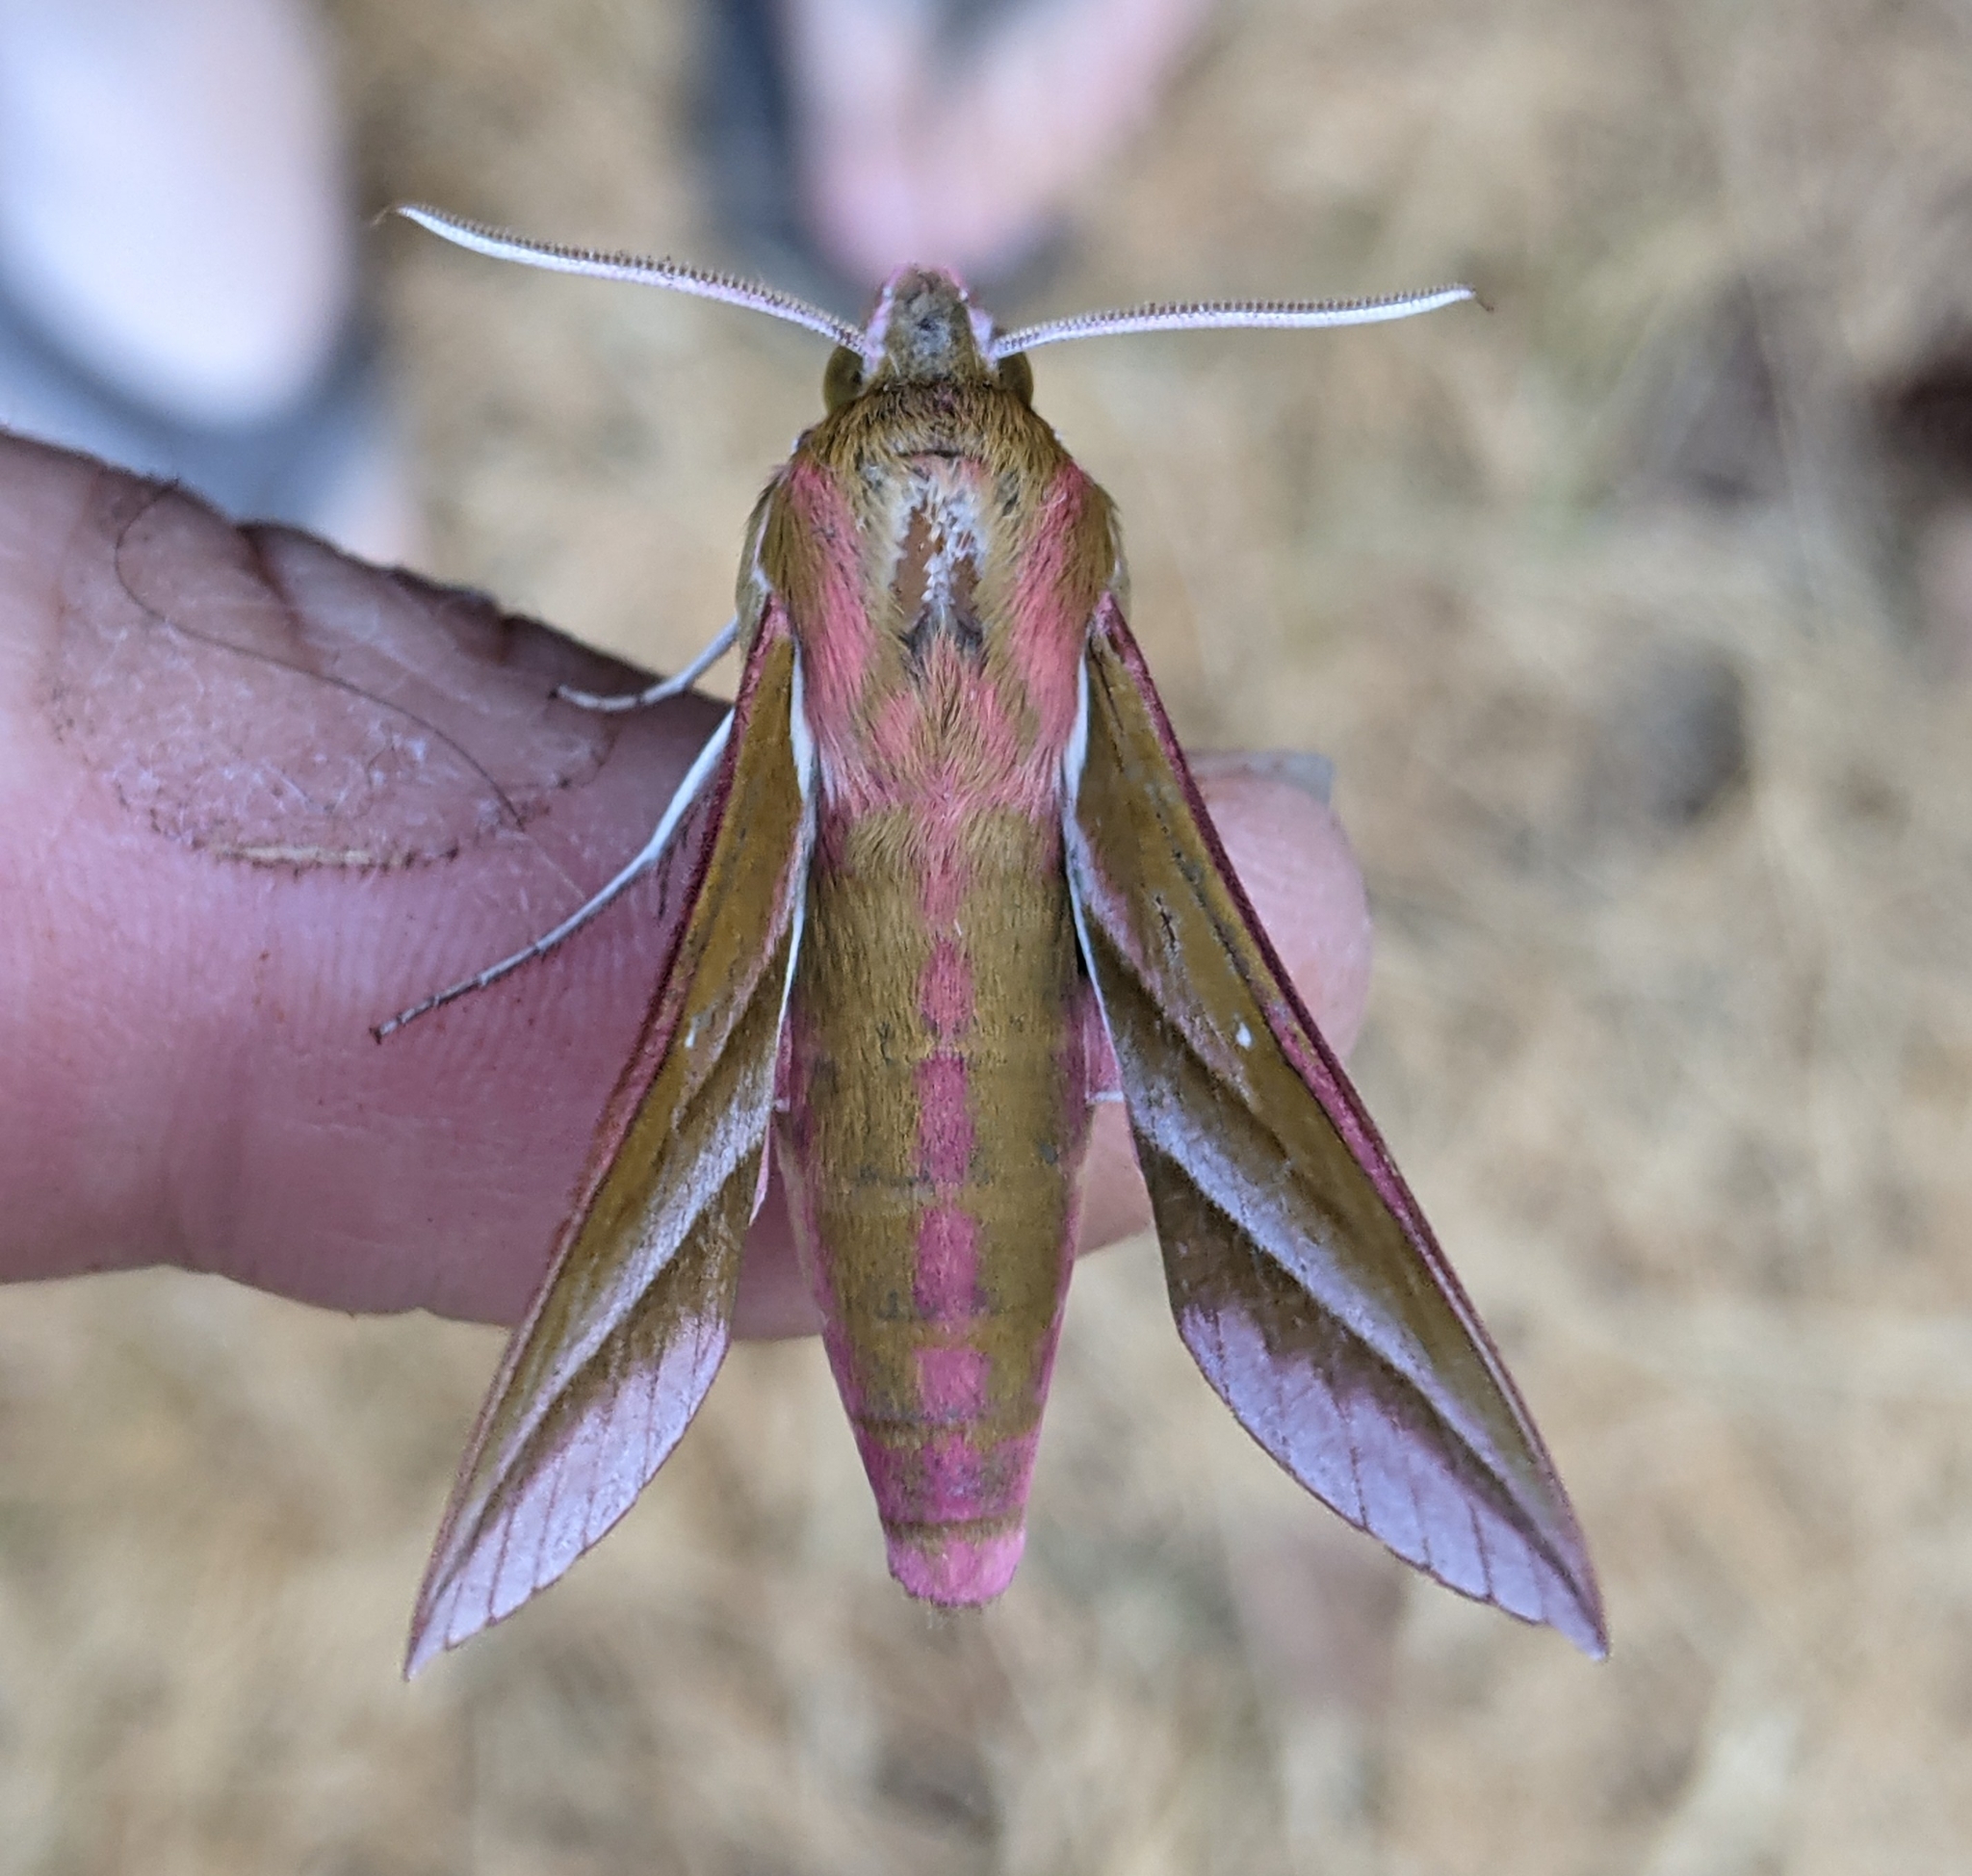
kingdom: Animalia
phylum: Arthropoda
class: Insecta
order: Lepidoptera
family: Sphingidae
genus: Deilephila
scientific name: Deilephila elpenor
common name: Elephant hawk-moth
